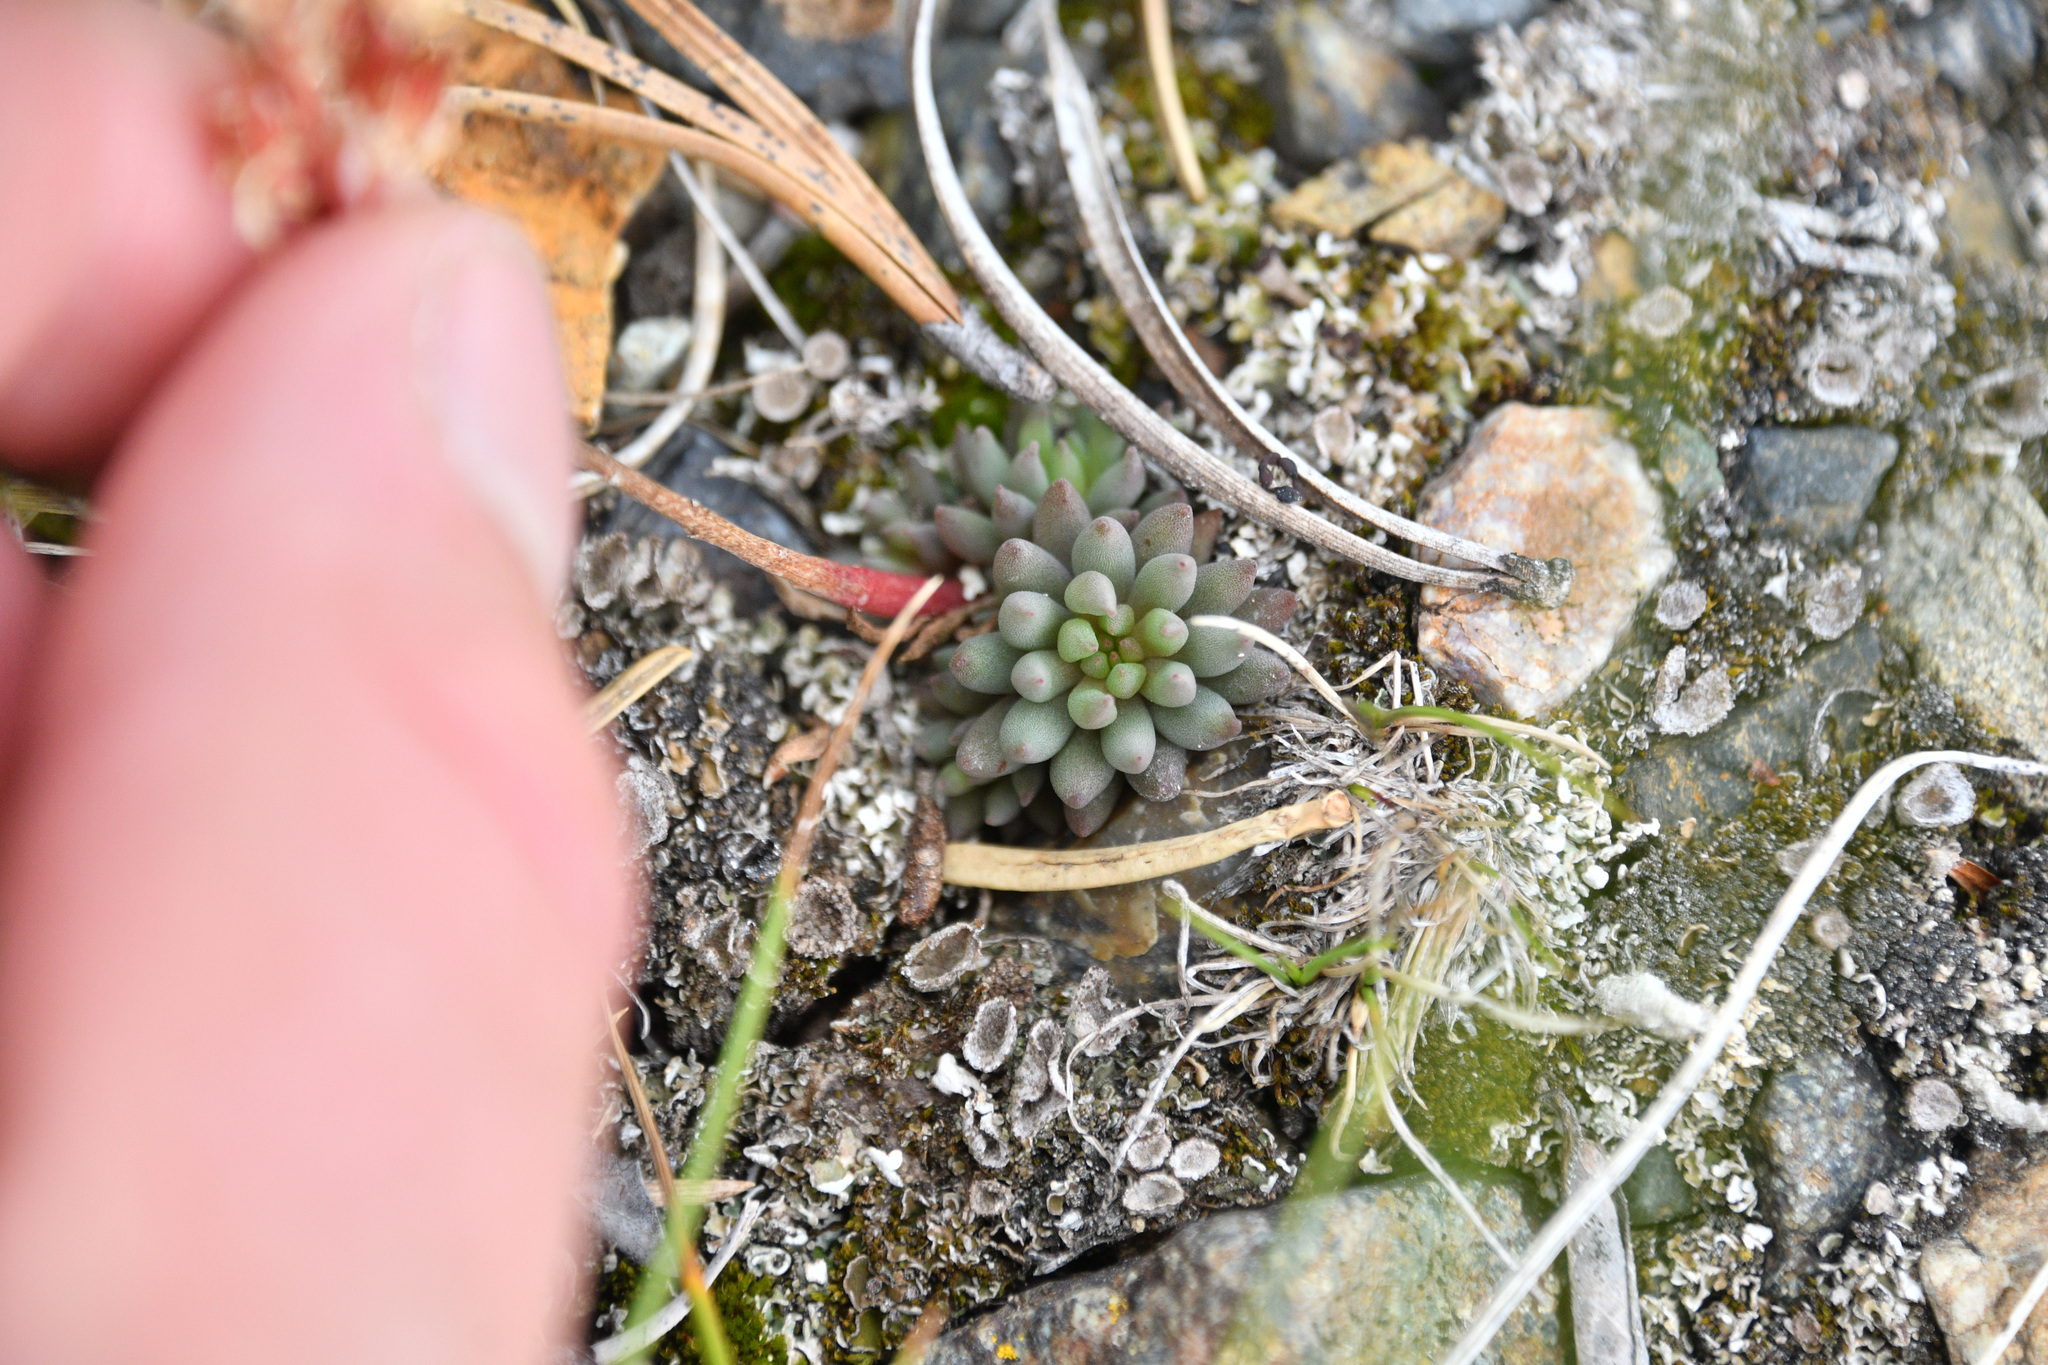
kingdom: Plantae
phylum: Tracheophyta
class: Magnoliopsida
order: Saxifragales
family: Crassulaceae
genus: Sedum
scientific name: Sedum lanceolatum
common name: Common stonecrop
